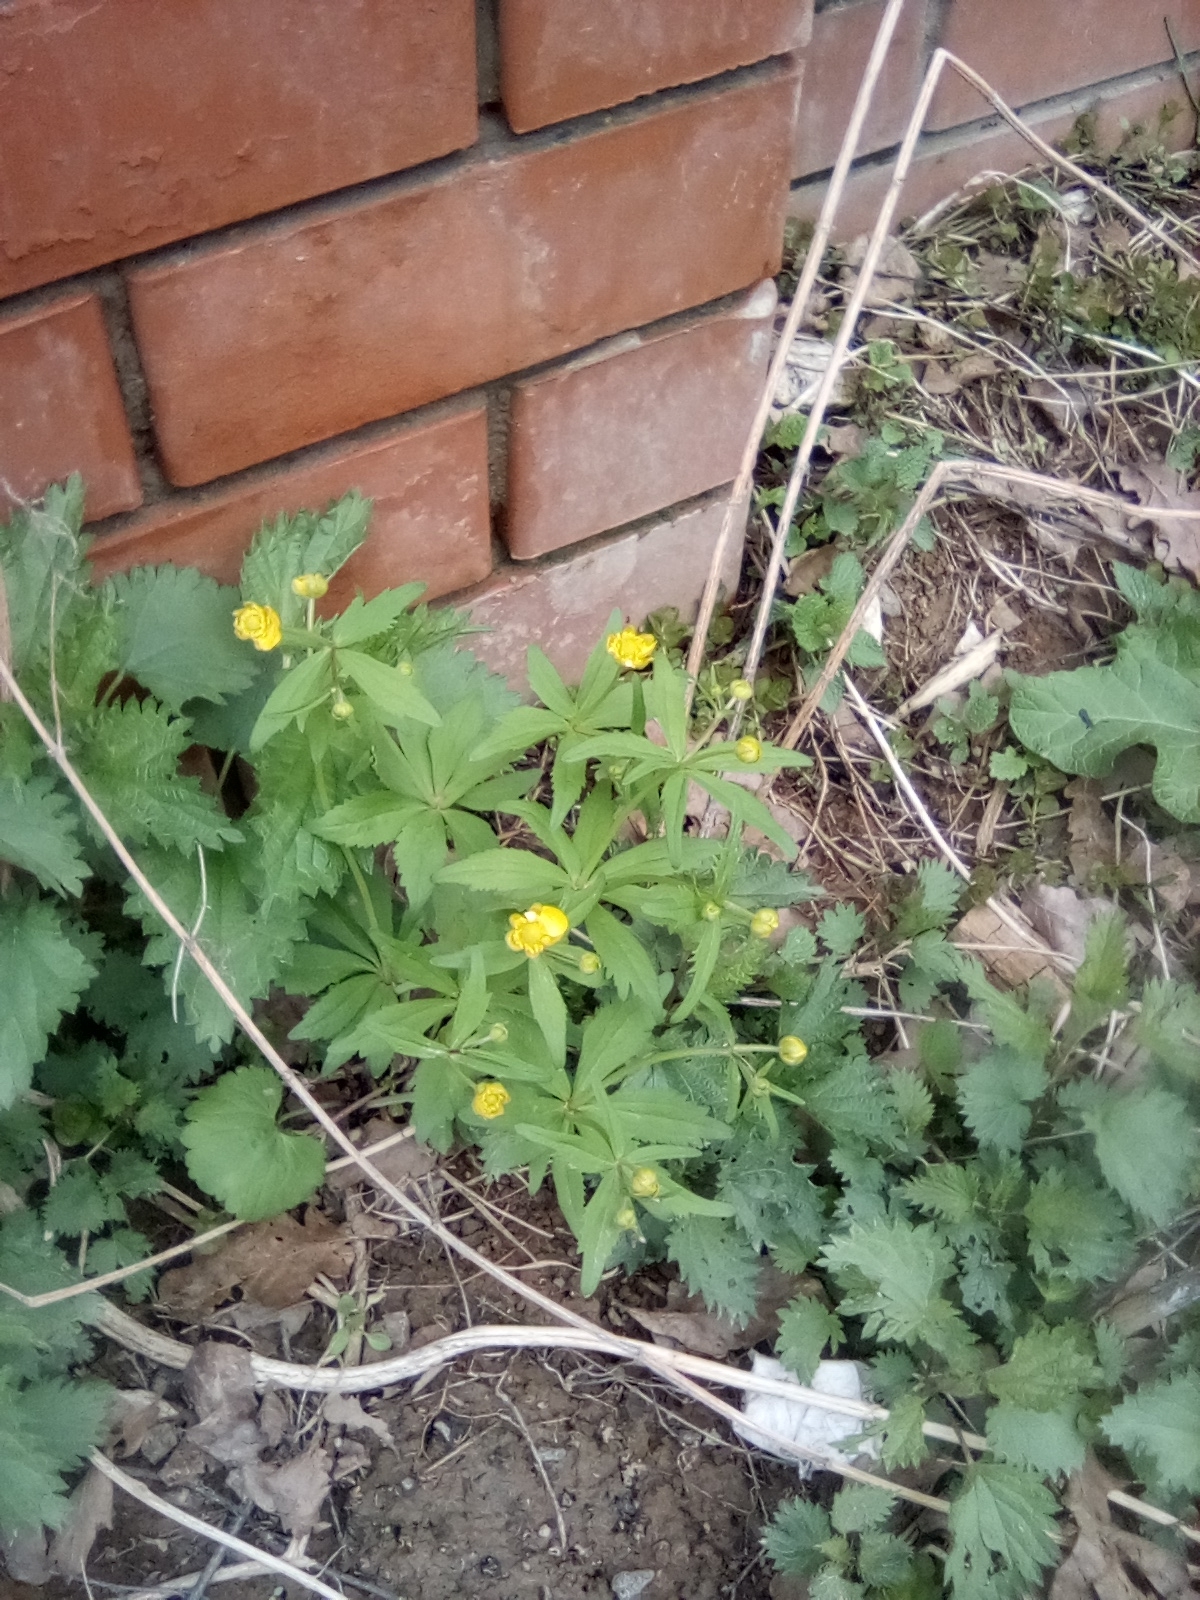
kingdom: Plantae
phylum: Tracheophyta
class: Magnoliopsida
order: Ranunculales
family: Ranunculaceae
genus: Ranunculus
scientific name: Ranunculus cassubicus
